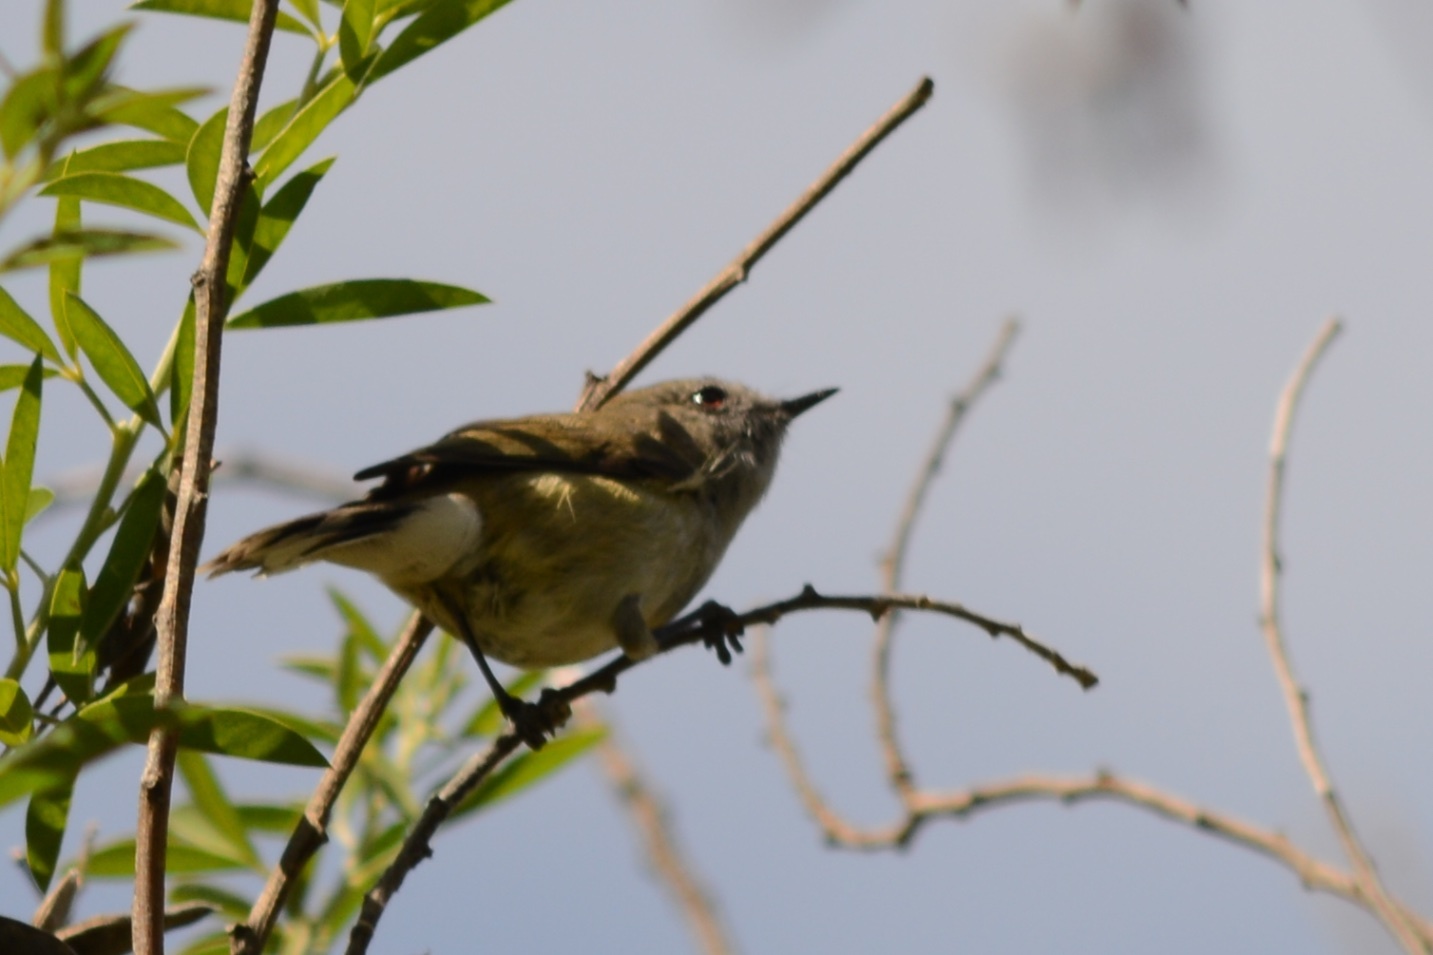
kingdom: Animalia
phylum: Chordata
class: Aves
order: Passeriformes
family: Acanthizidae
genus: Gerygone
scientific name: Gerygone igata
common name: Grey gerygone
